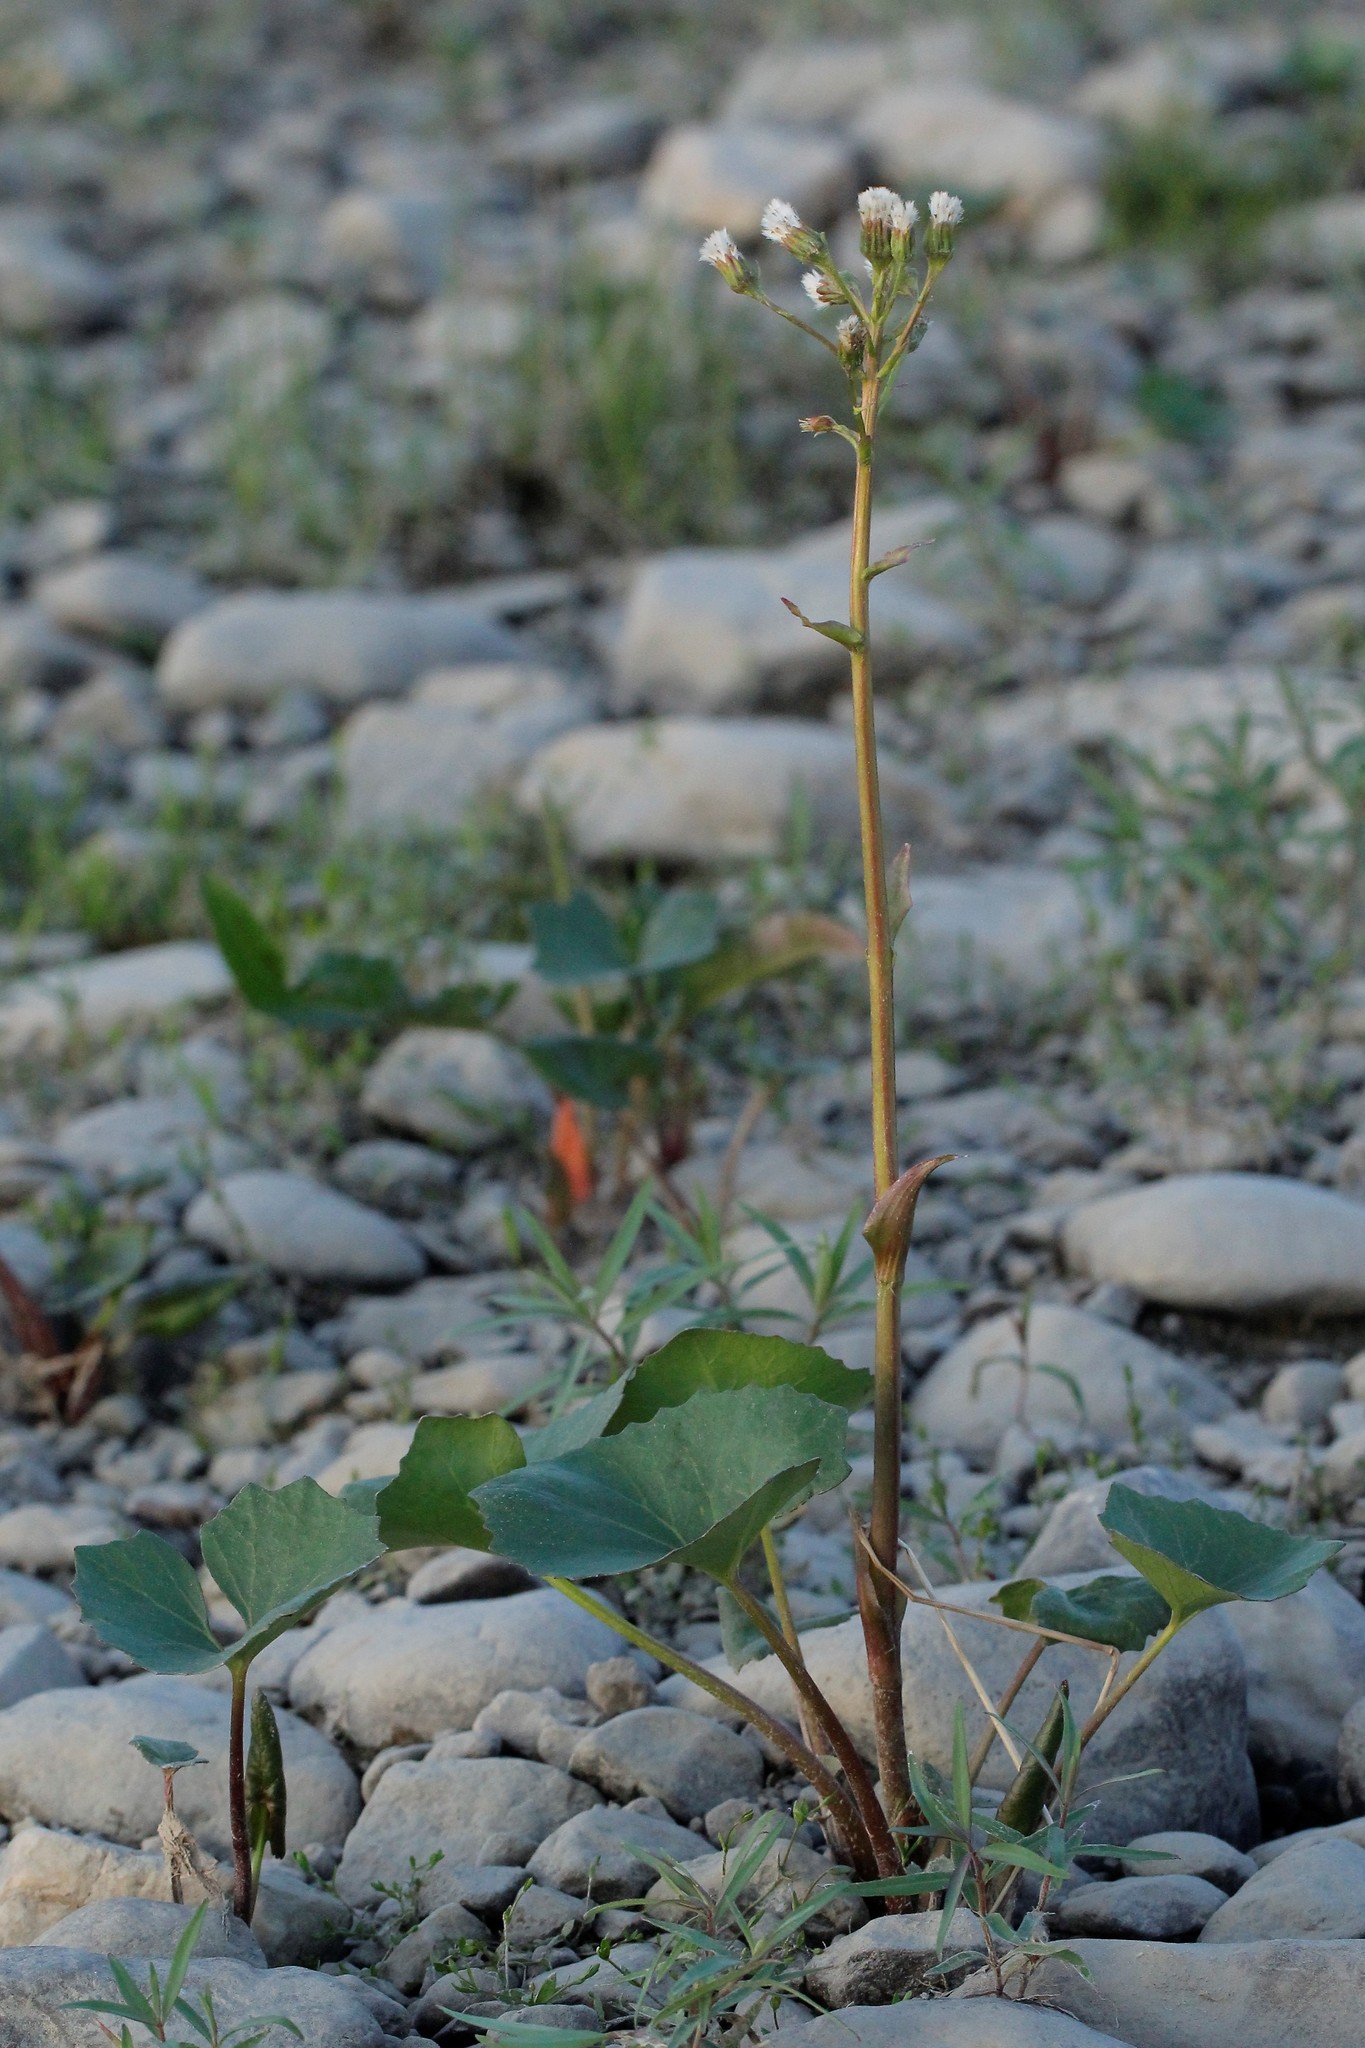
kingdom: Plantae
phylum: Tracheophyta
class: Magnoliopsida
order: Asterales
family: Asteraceae
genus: Petasites
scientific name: Petasites radiatus
